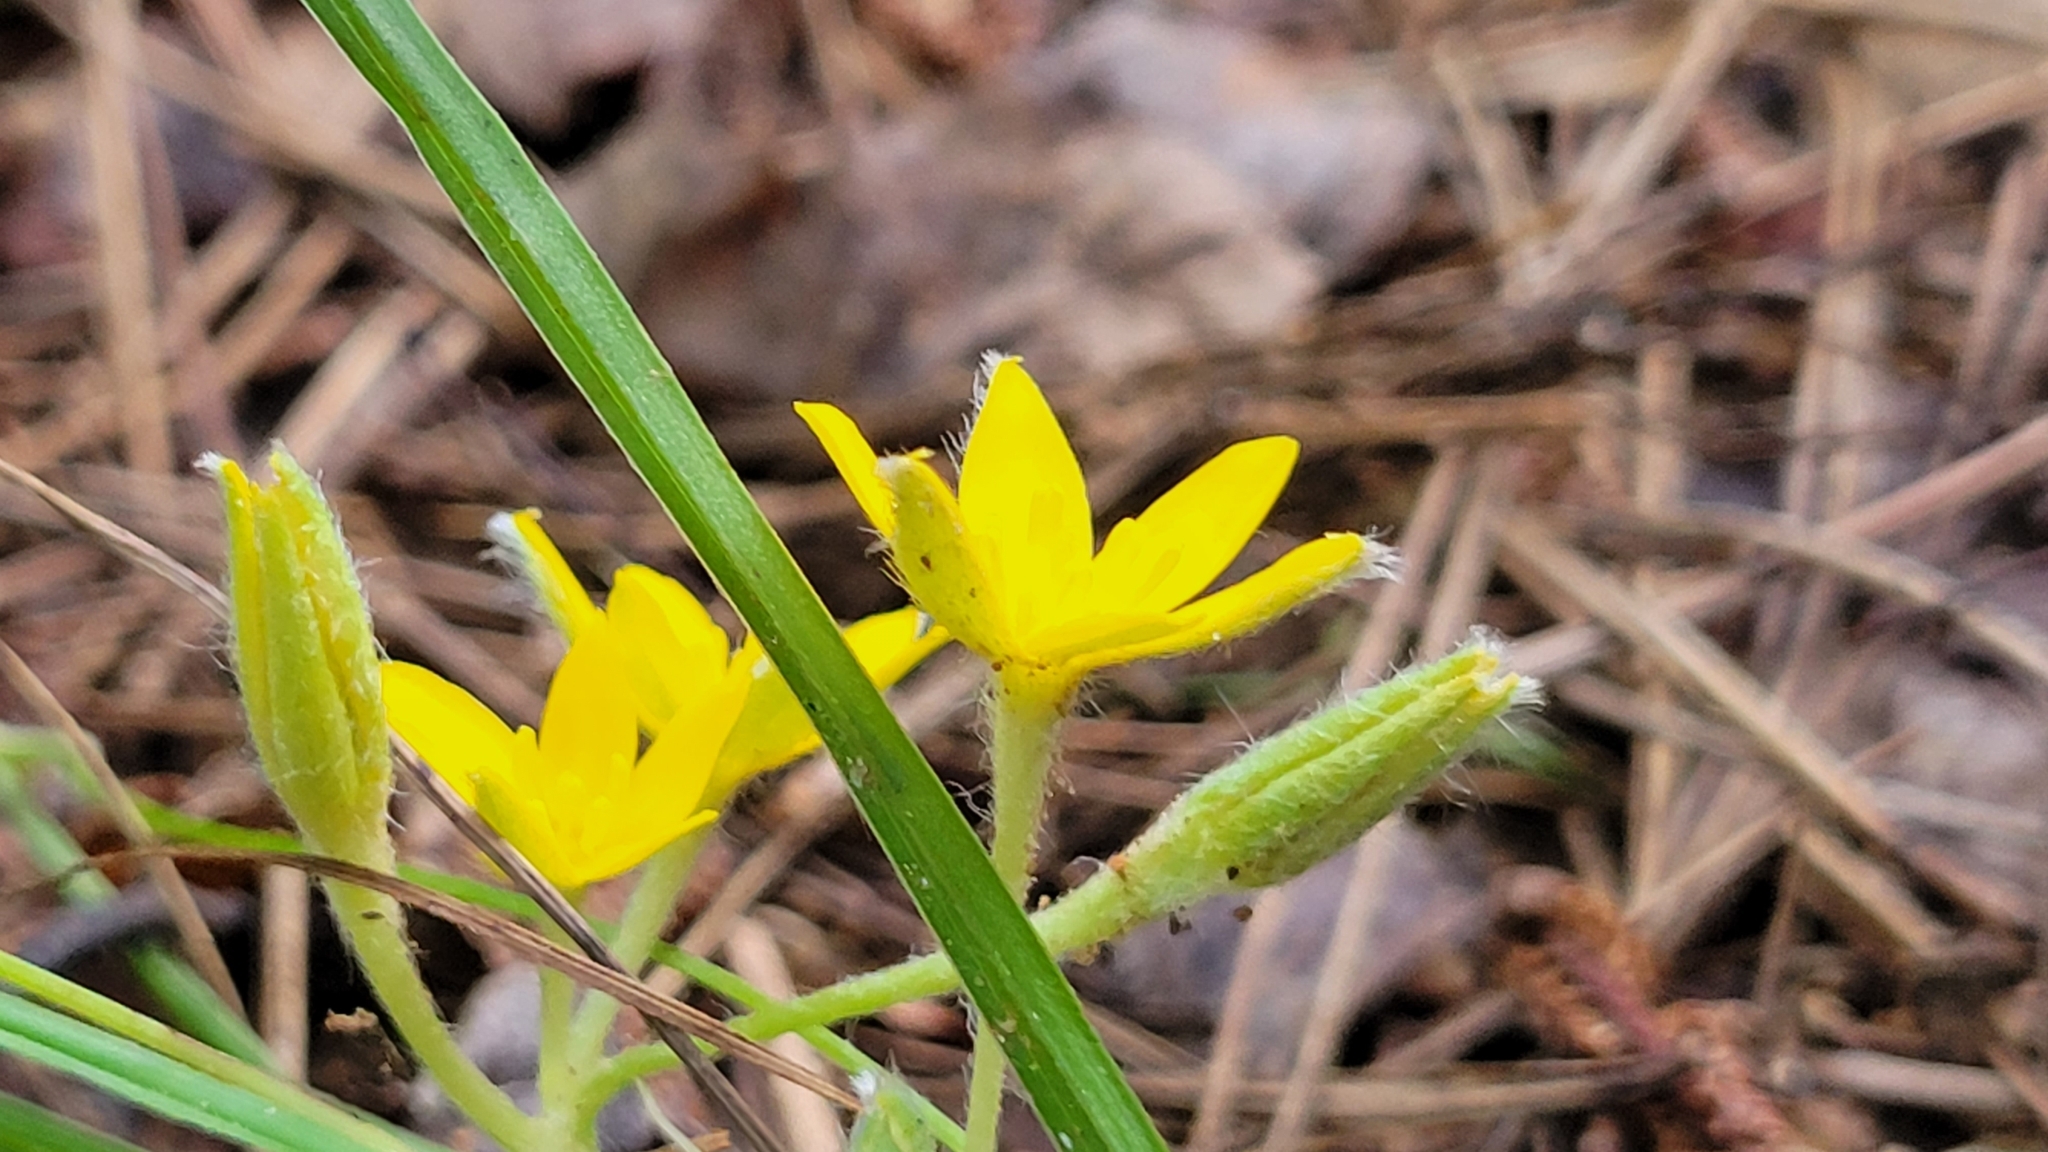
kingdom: Plantae
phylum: Tracheophyta
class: Liliopsida
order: Asparagales
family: Hypoxidaceae
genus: Hypoxis
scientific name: Hypoxis hirsuta
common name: Common goldstar
